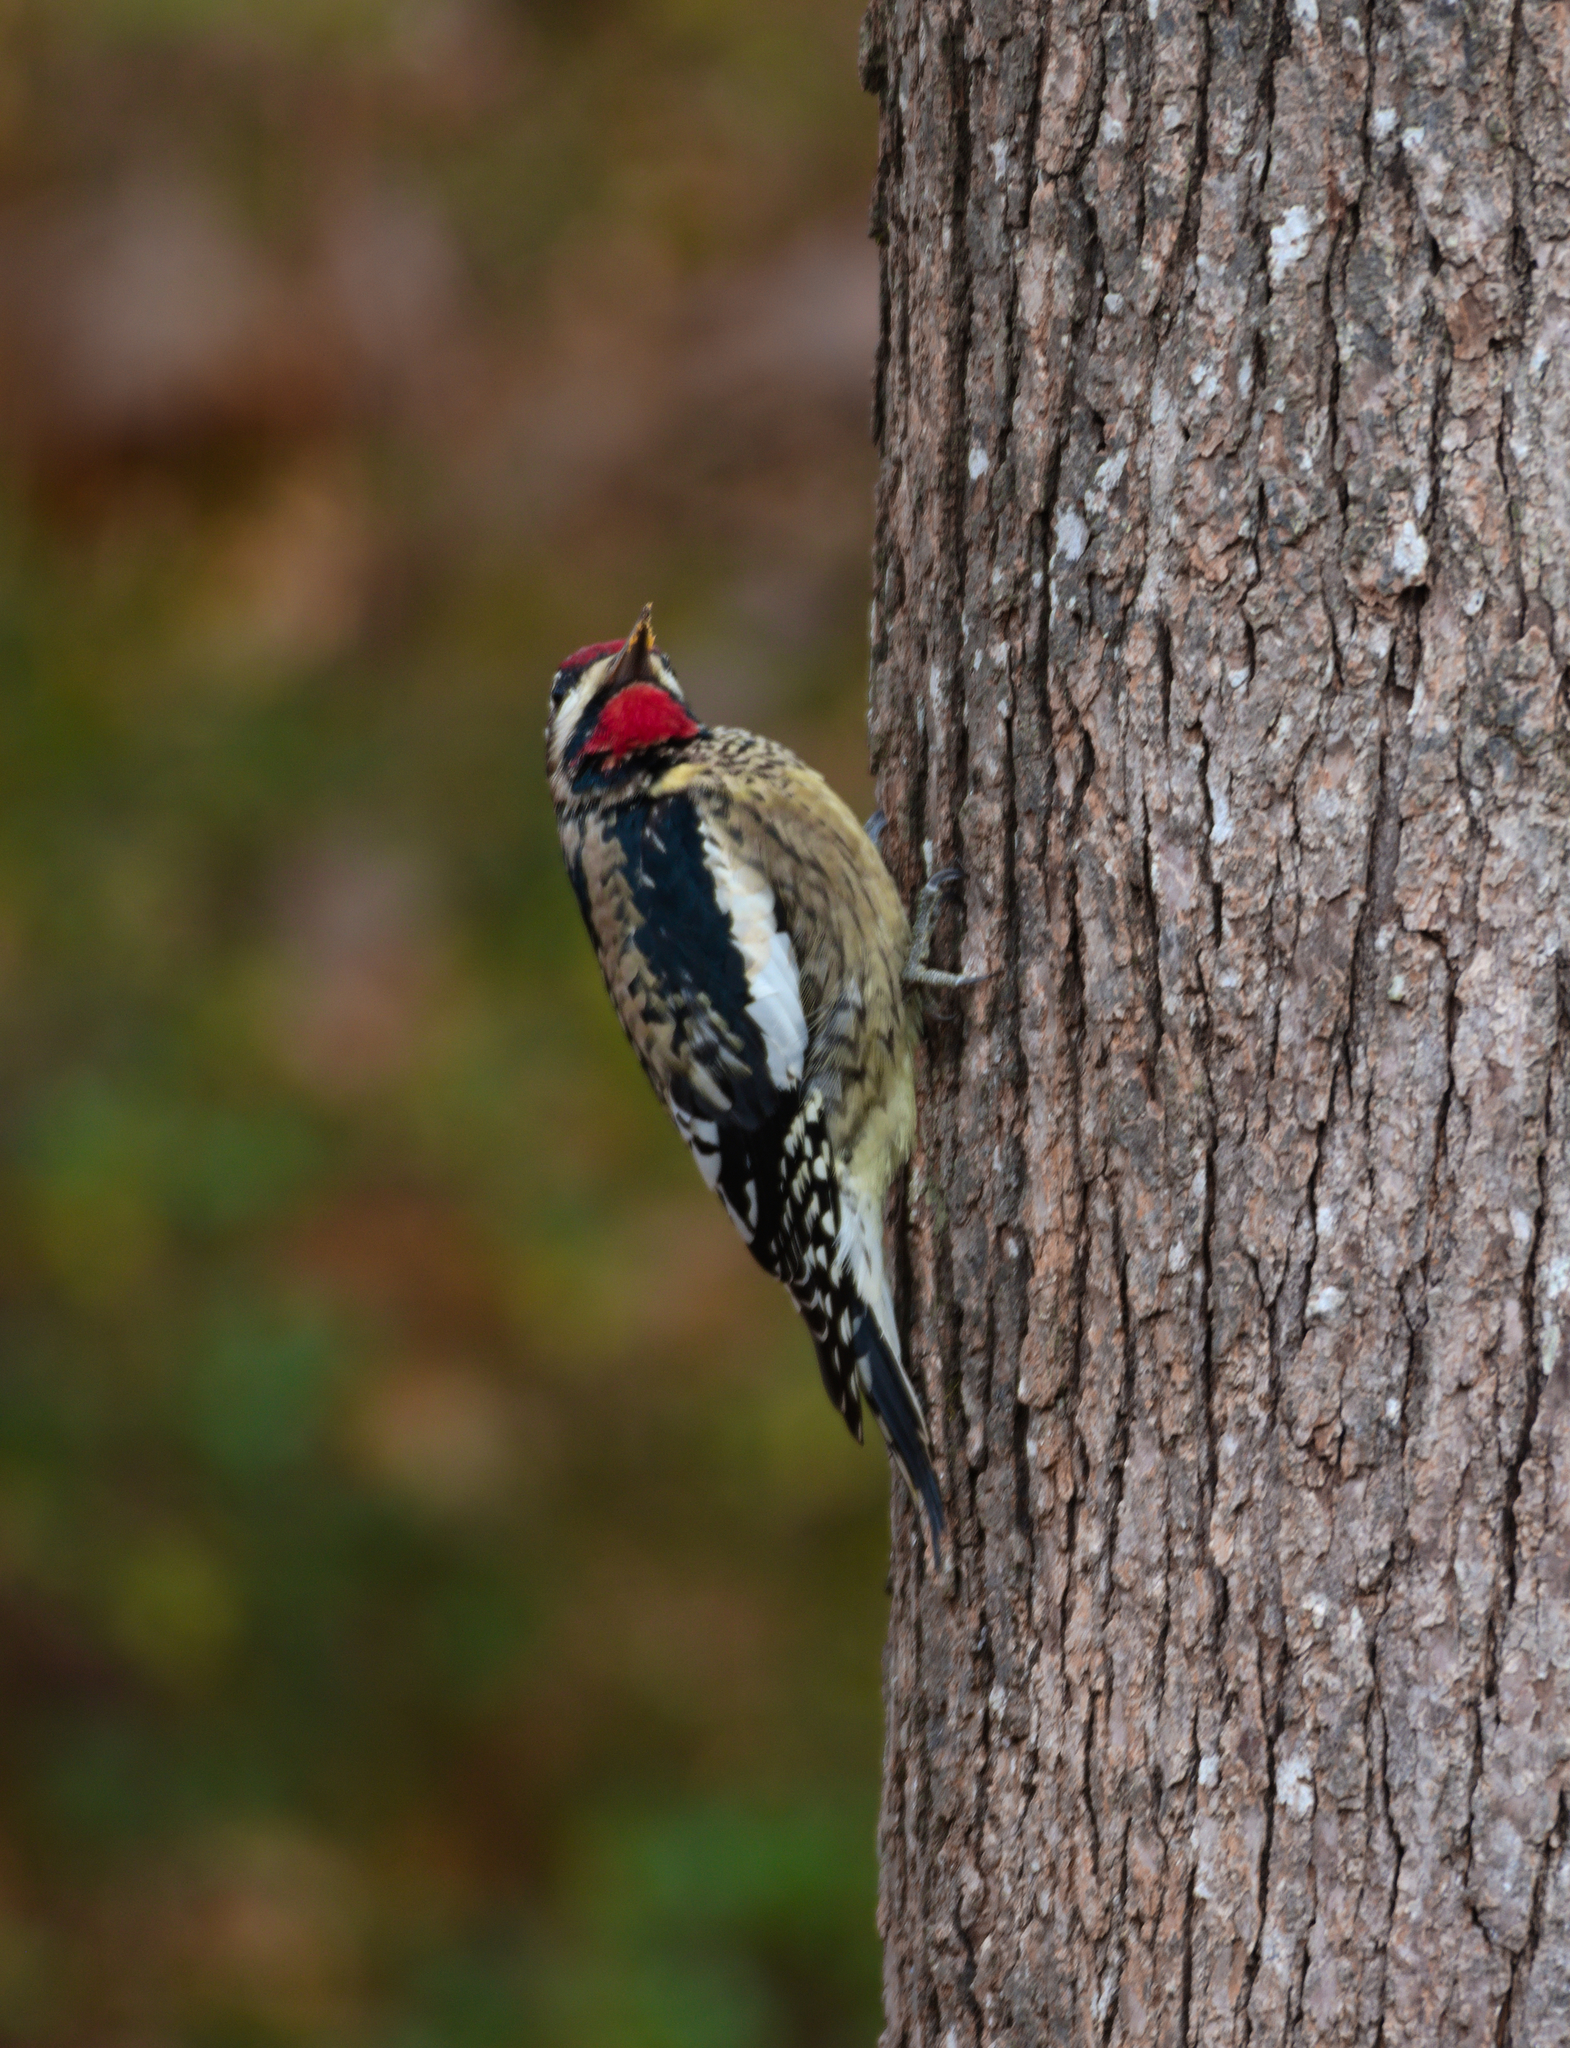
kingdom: Animalia
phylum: Chordata
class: Aves
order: Piciformes
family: Picidae
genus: Sphyrapicus
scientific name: Sphyrapicus varius
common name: Yellow-bellied sapsucker
